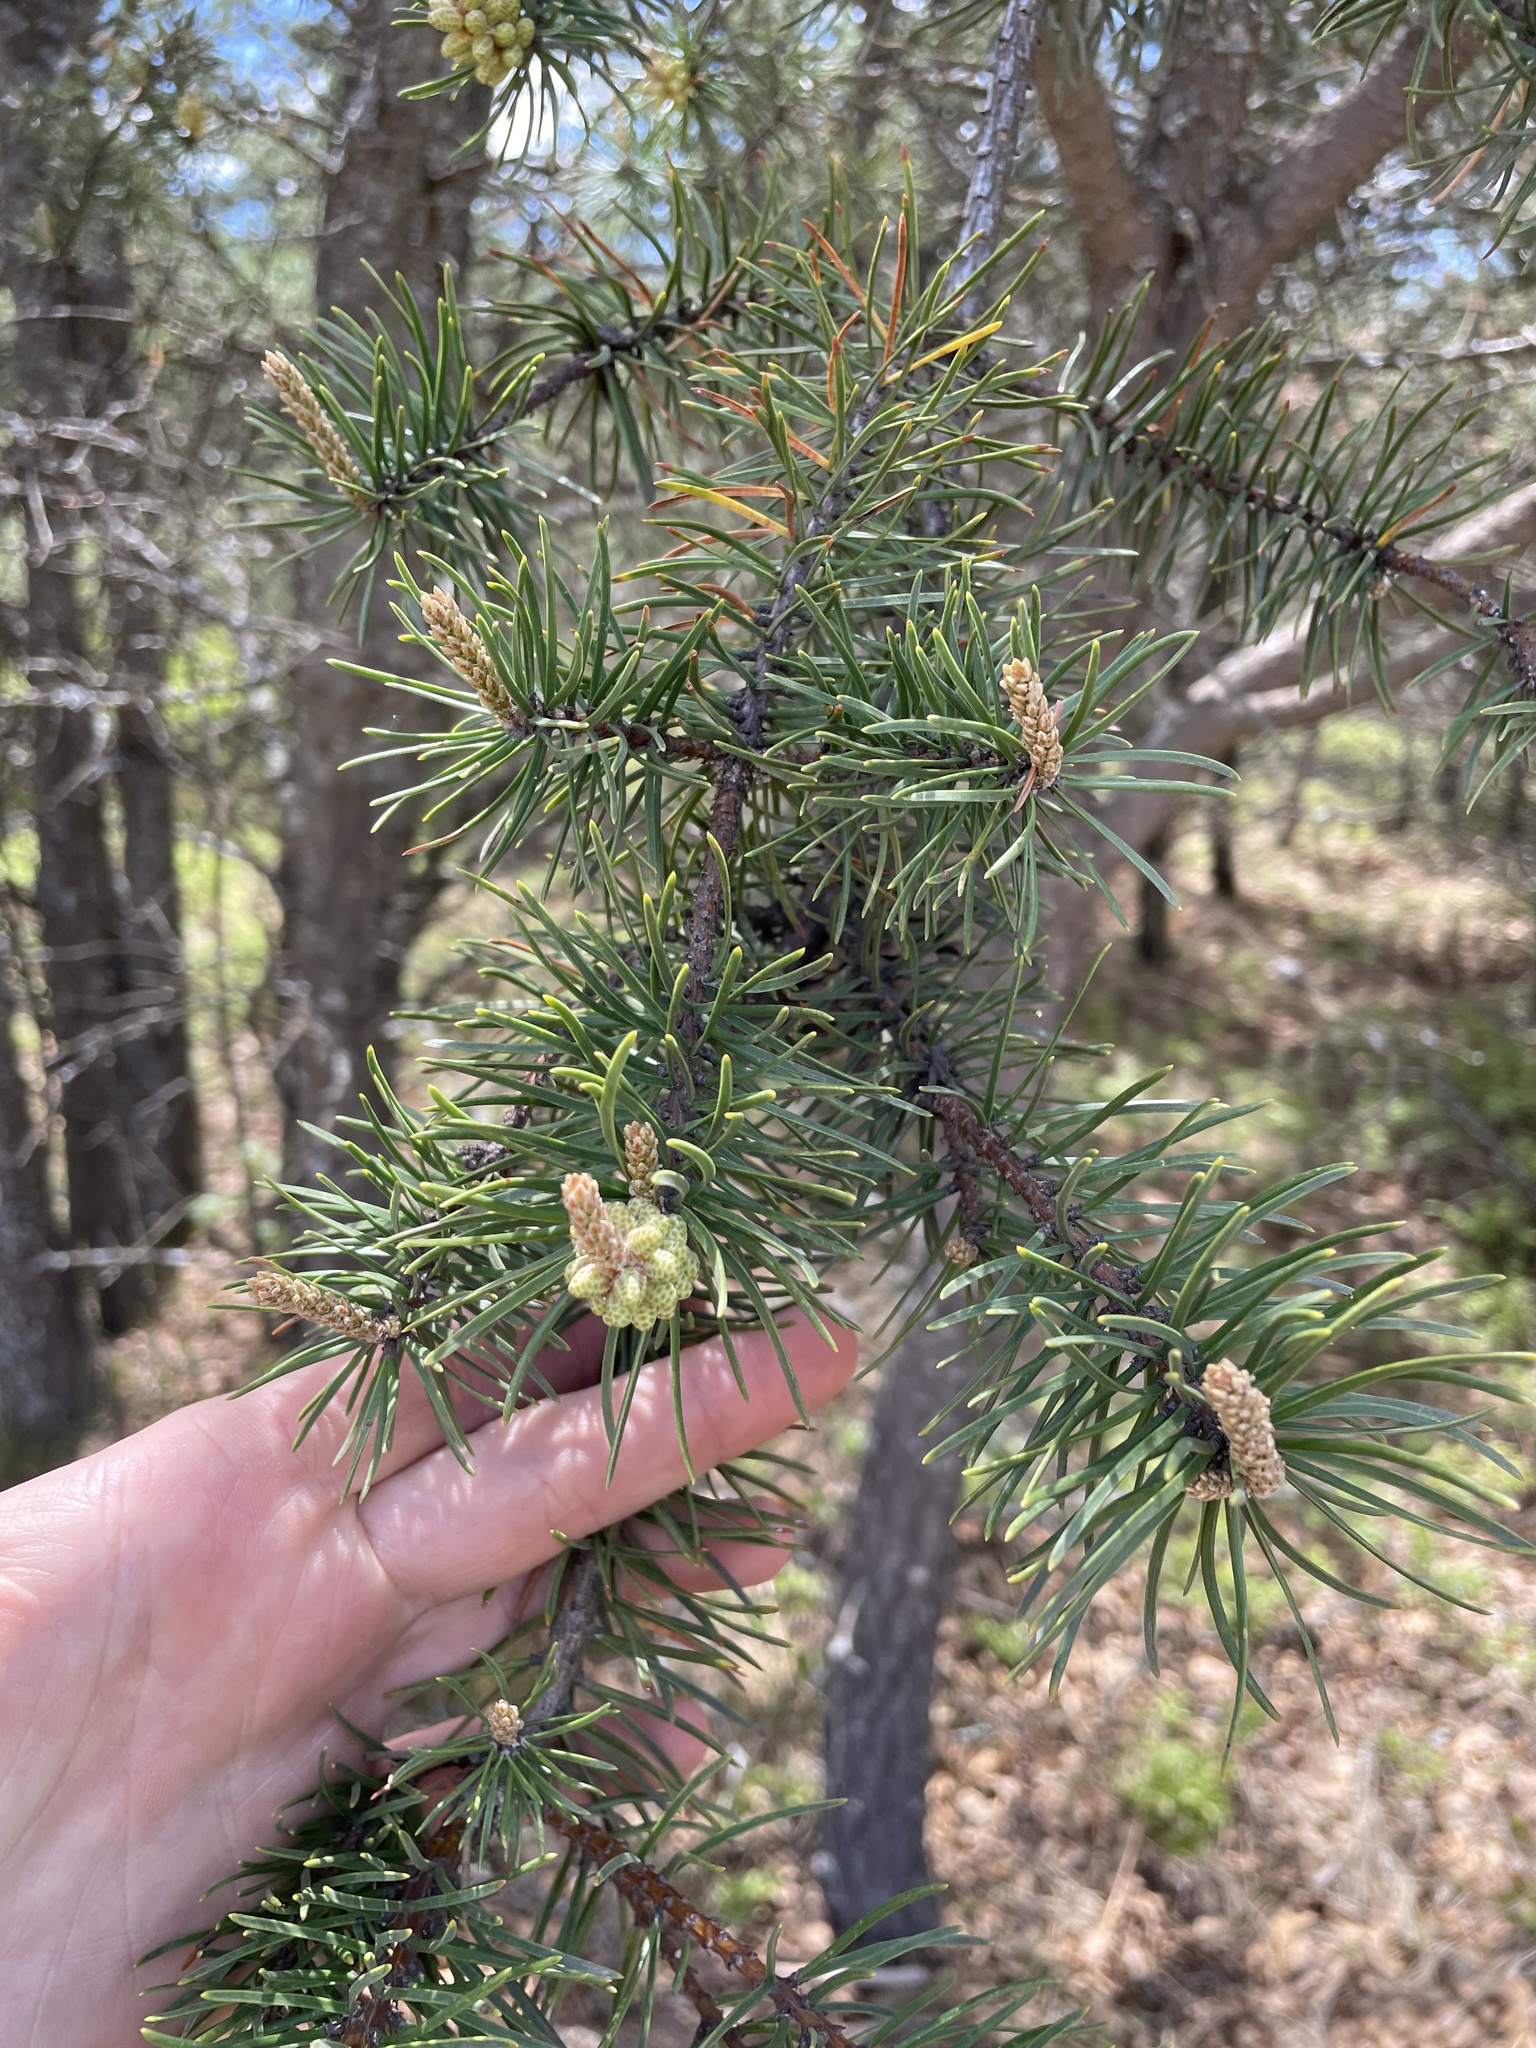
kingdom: Plantae
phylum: Tracheophyta
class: Pinopsida
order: Pinales
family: Pinaceae
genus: Pinus
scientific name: Pinus banksiana
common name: Jack pine
